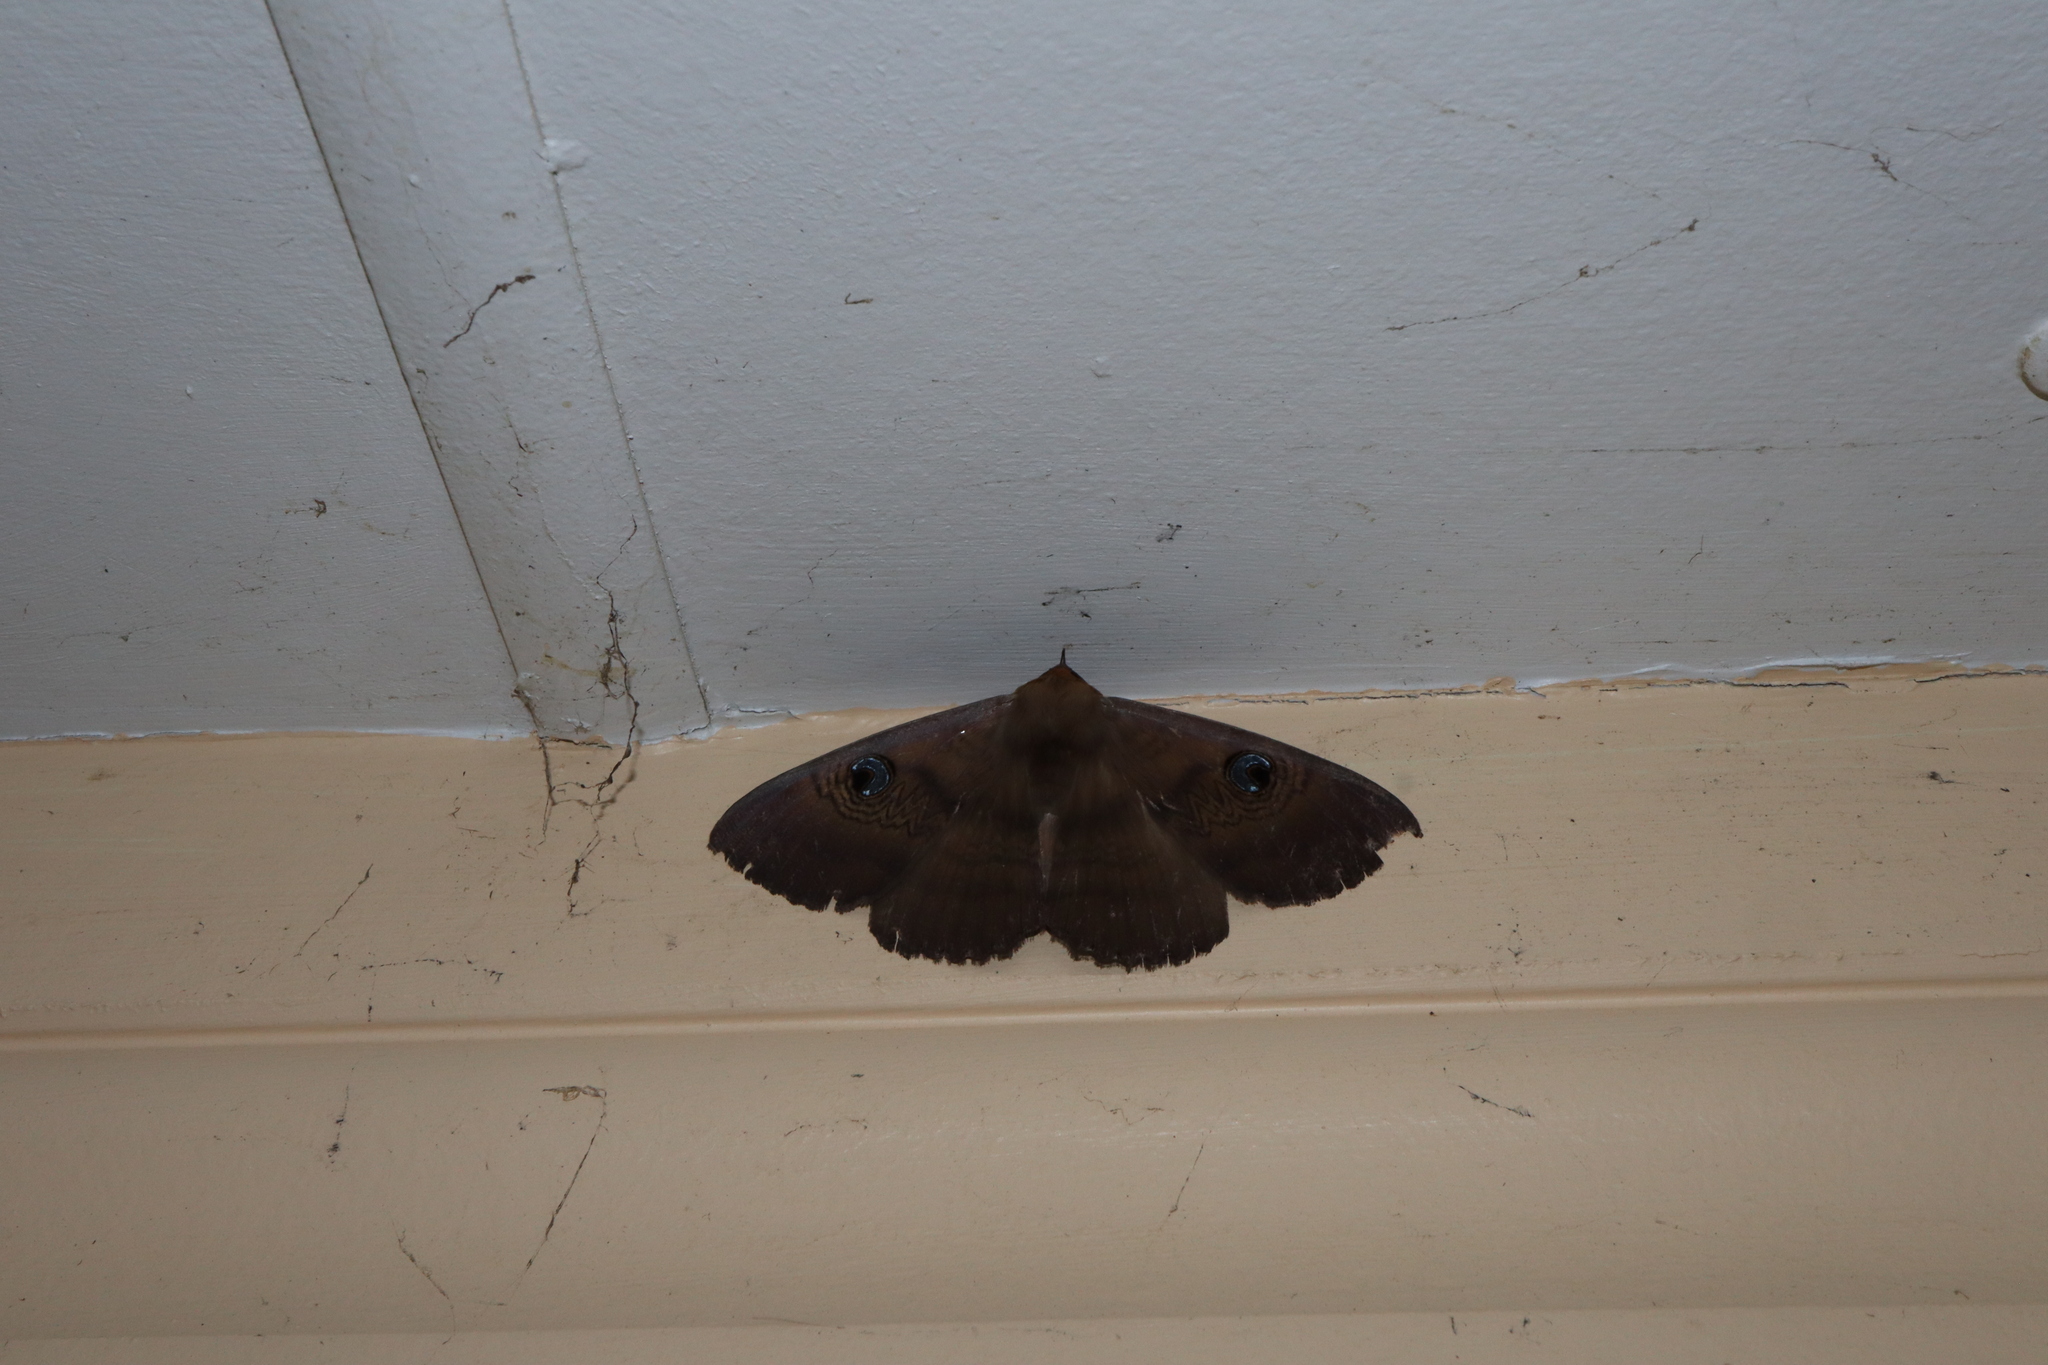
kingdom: Animalia
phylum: Arthropoda
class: Insecta
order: Lepidoptera
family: Erebidae
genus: Dasypodia
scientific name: Dasypodia selenophora
